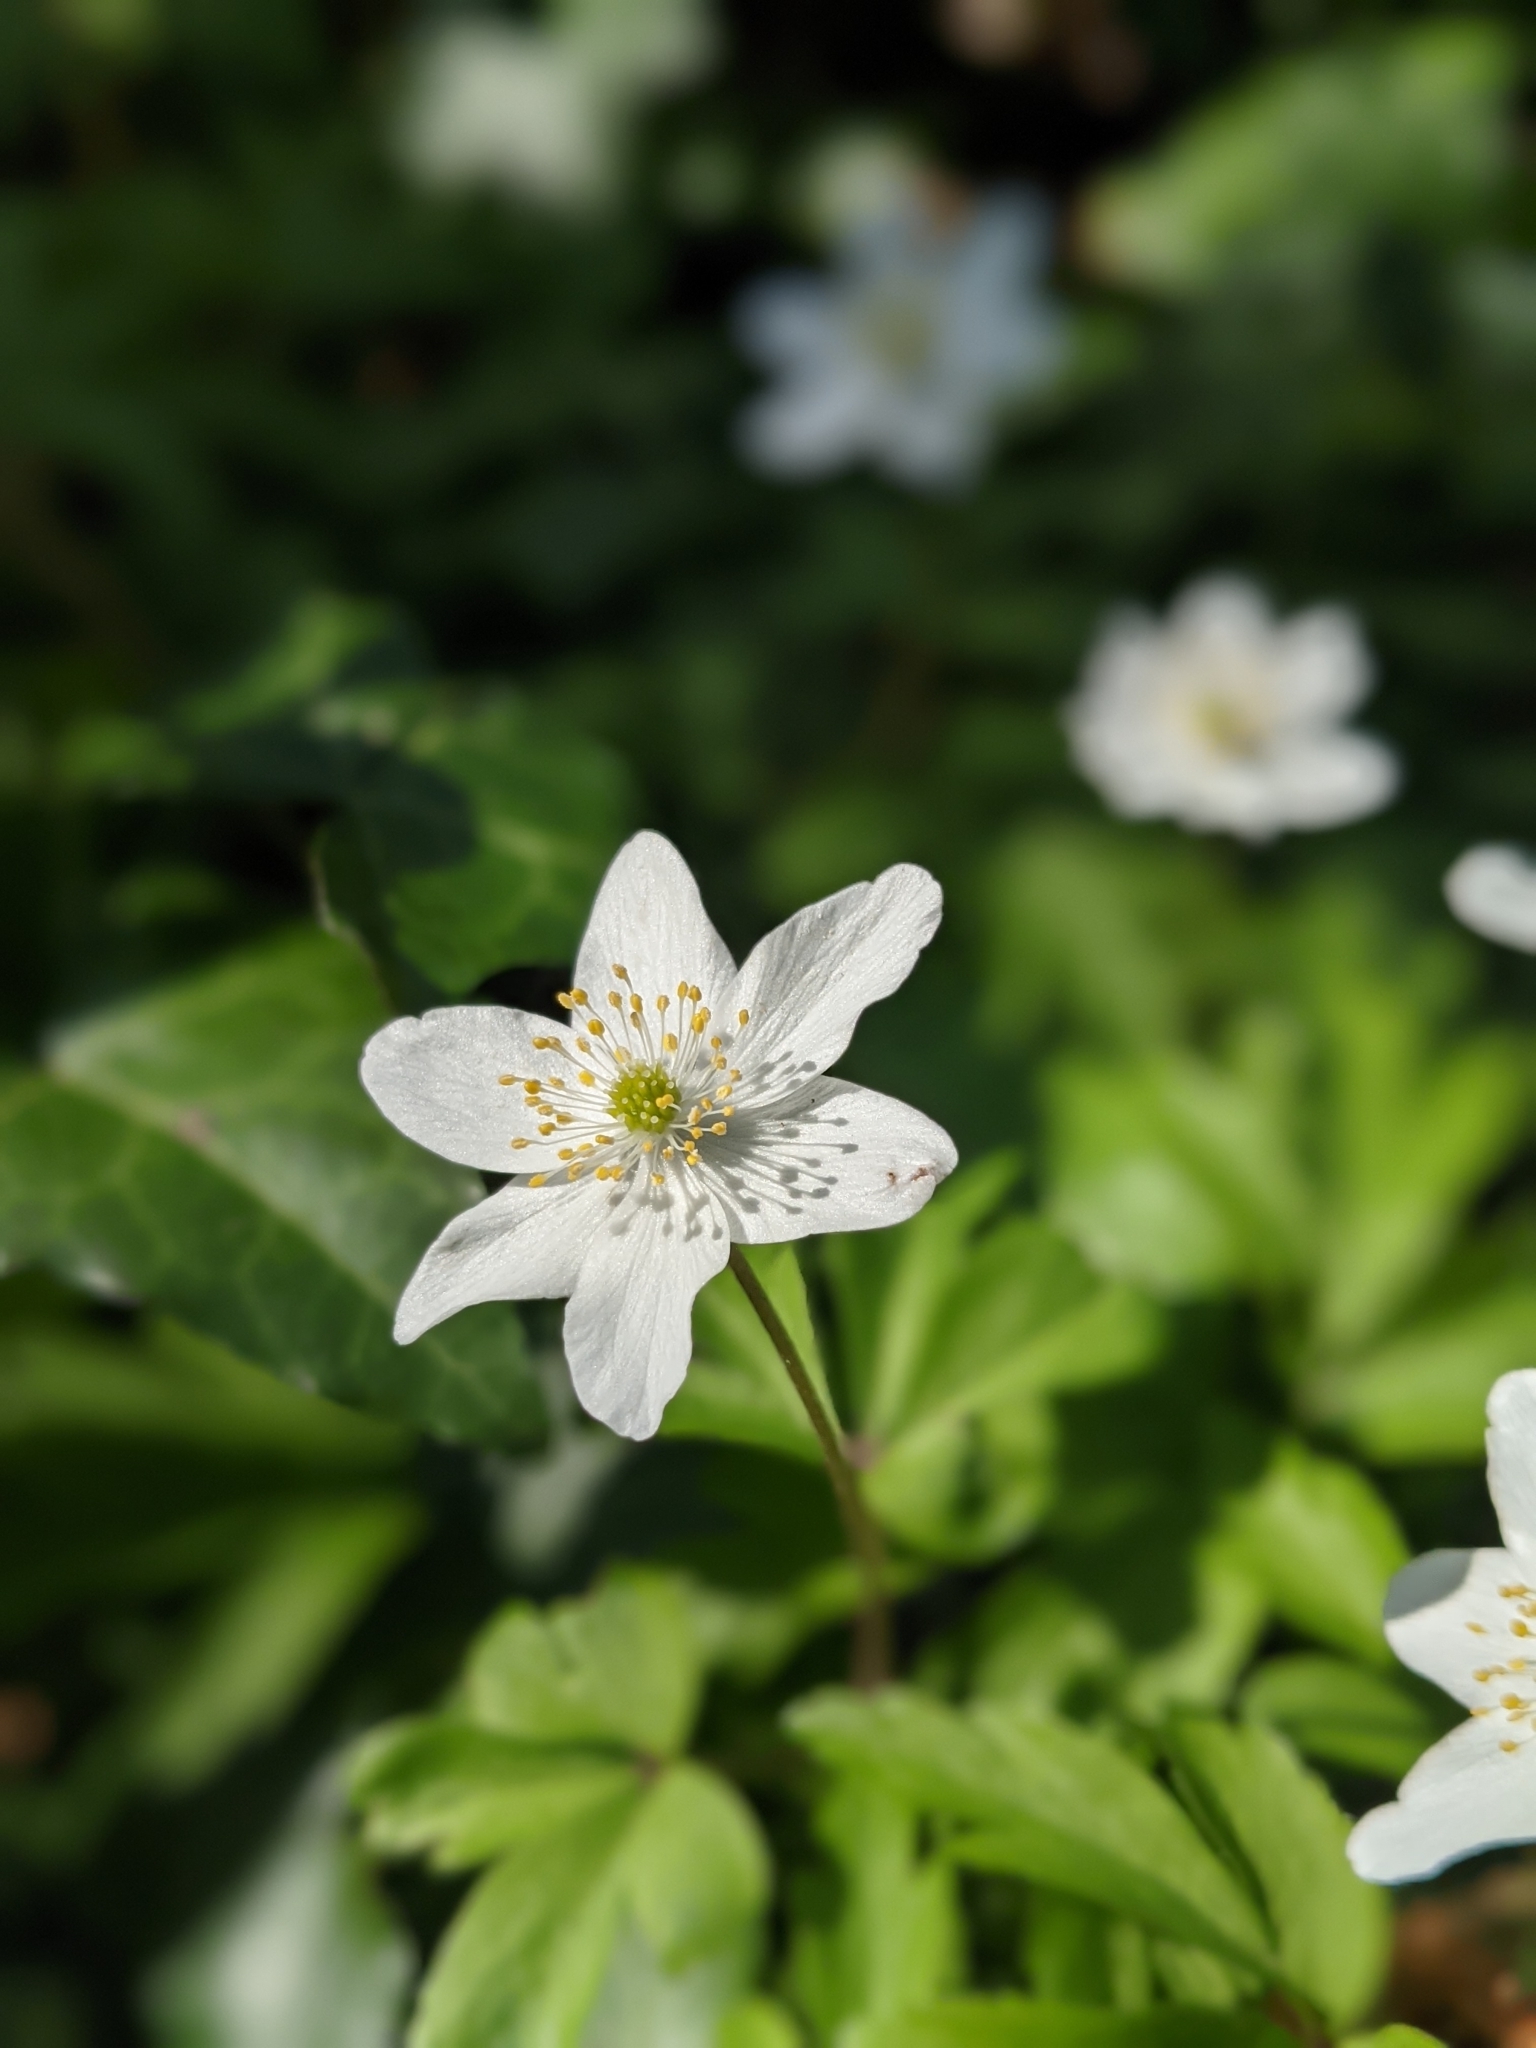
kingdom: Plantae
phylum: Tracheophyta
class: Magnoliopsida
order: Ranunculales
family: Ranunculaceae
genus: Anemone
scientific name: Anemone nemorosa
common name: Wood anemone
